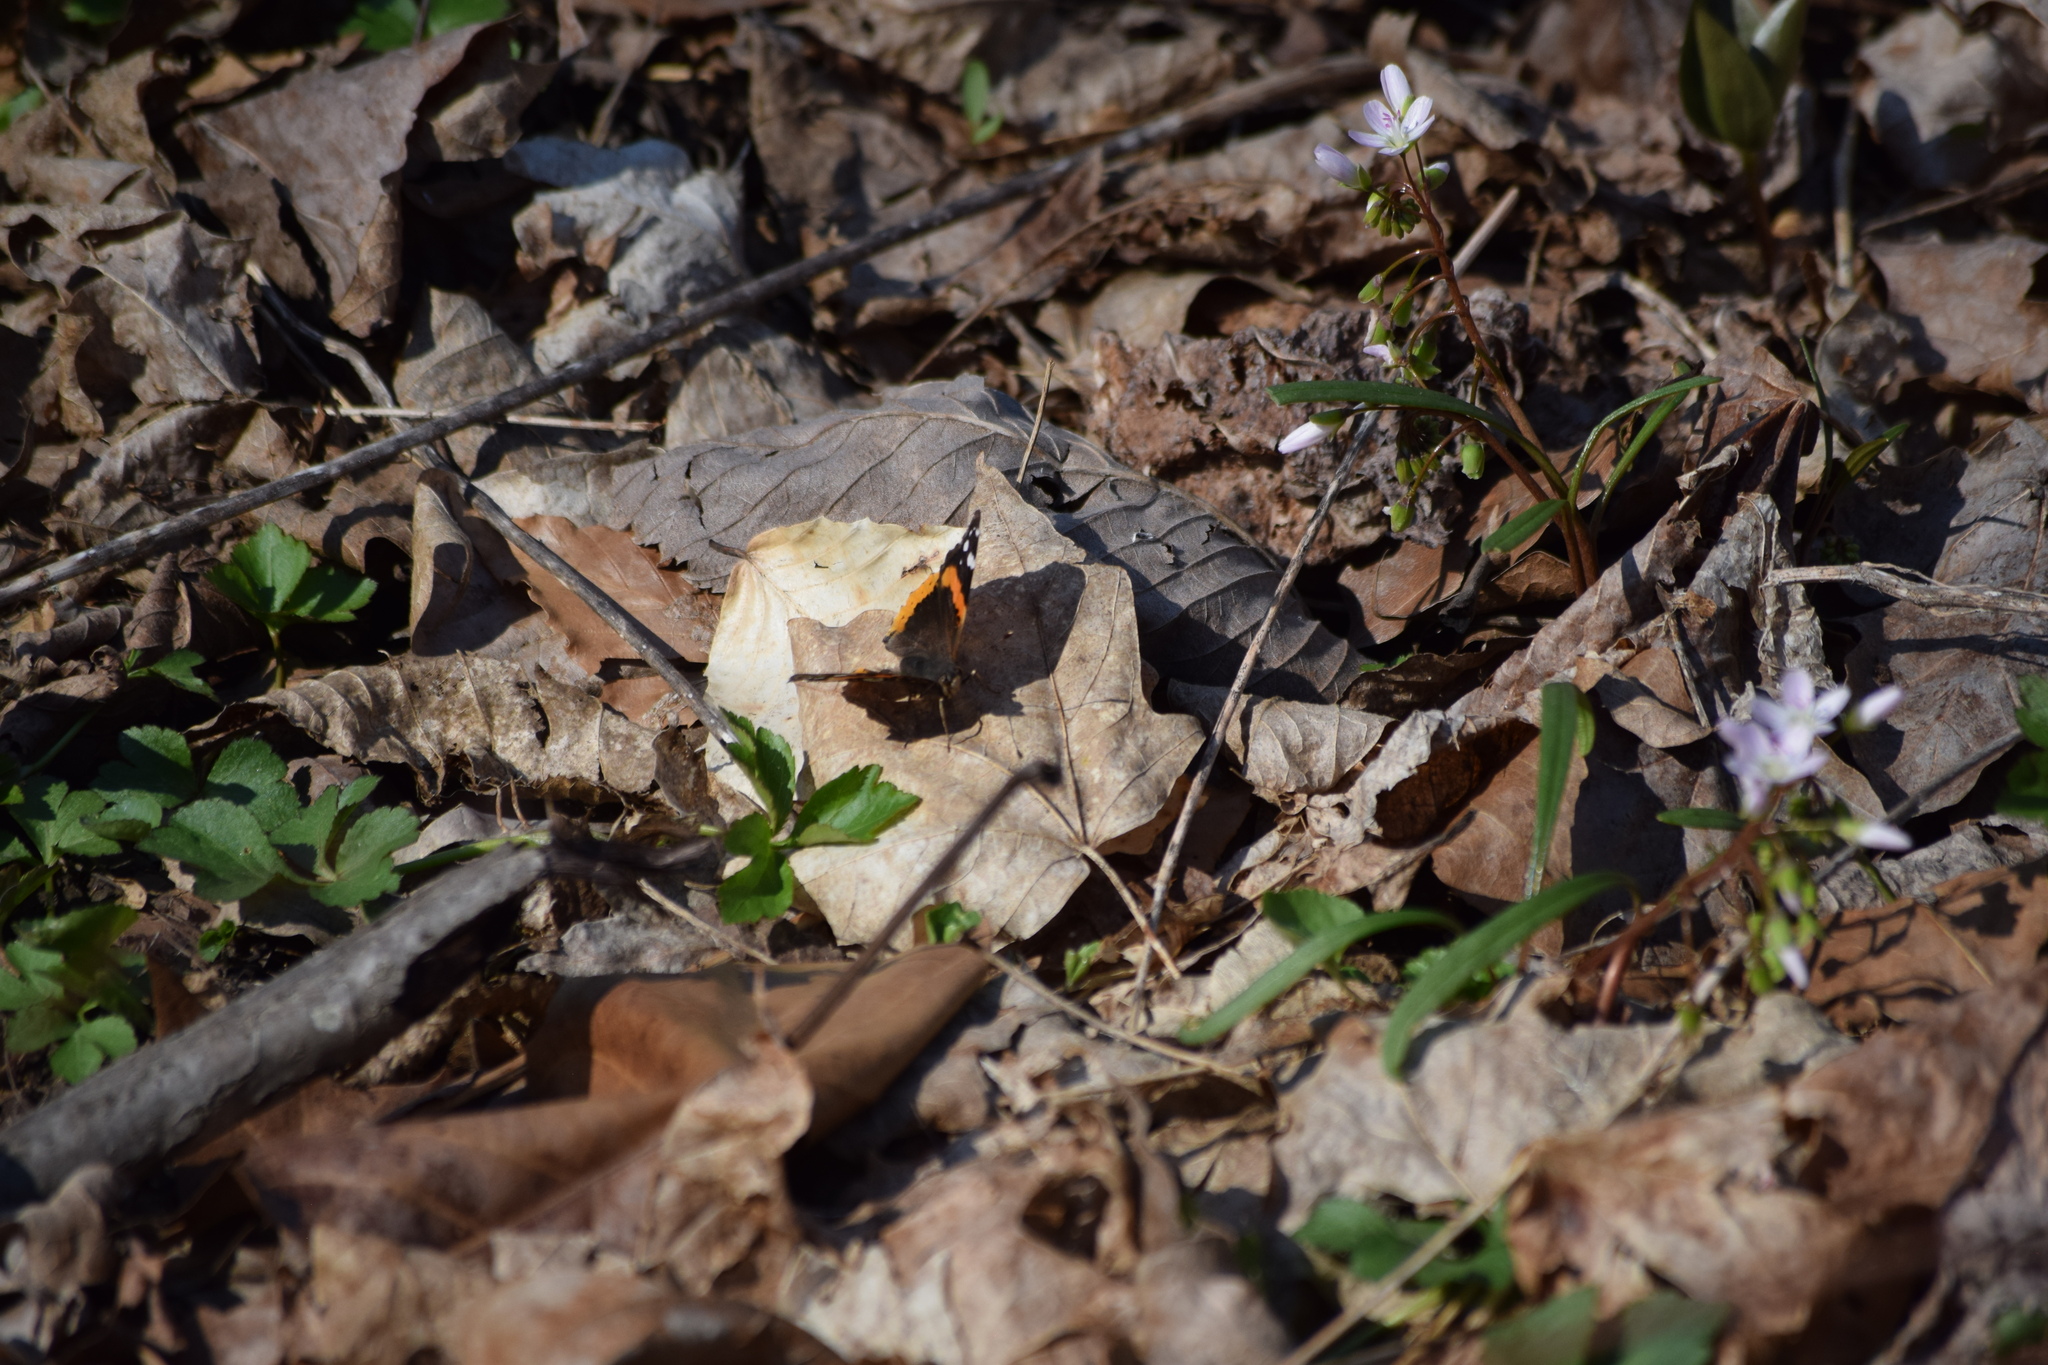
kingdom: Animalia
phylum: Arthropoda
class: Insecta
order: Lepidoptera
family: Nymphalidae
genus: Vanessa
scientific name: Vanessa atalanta
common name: Red admiral
